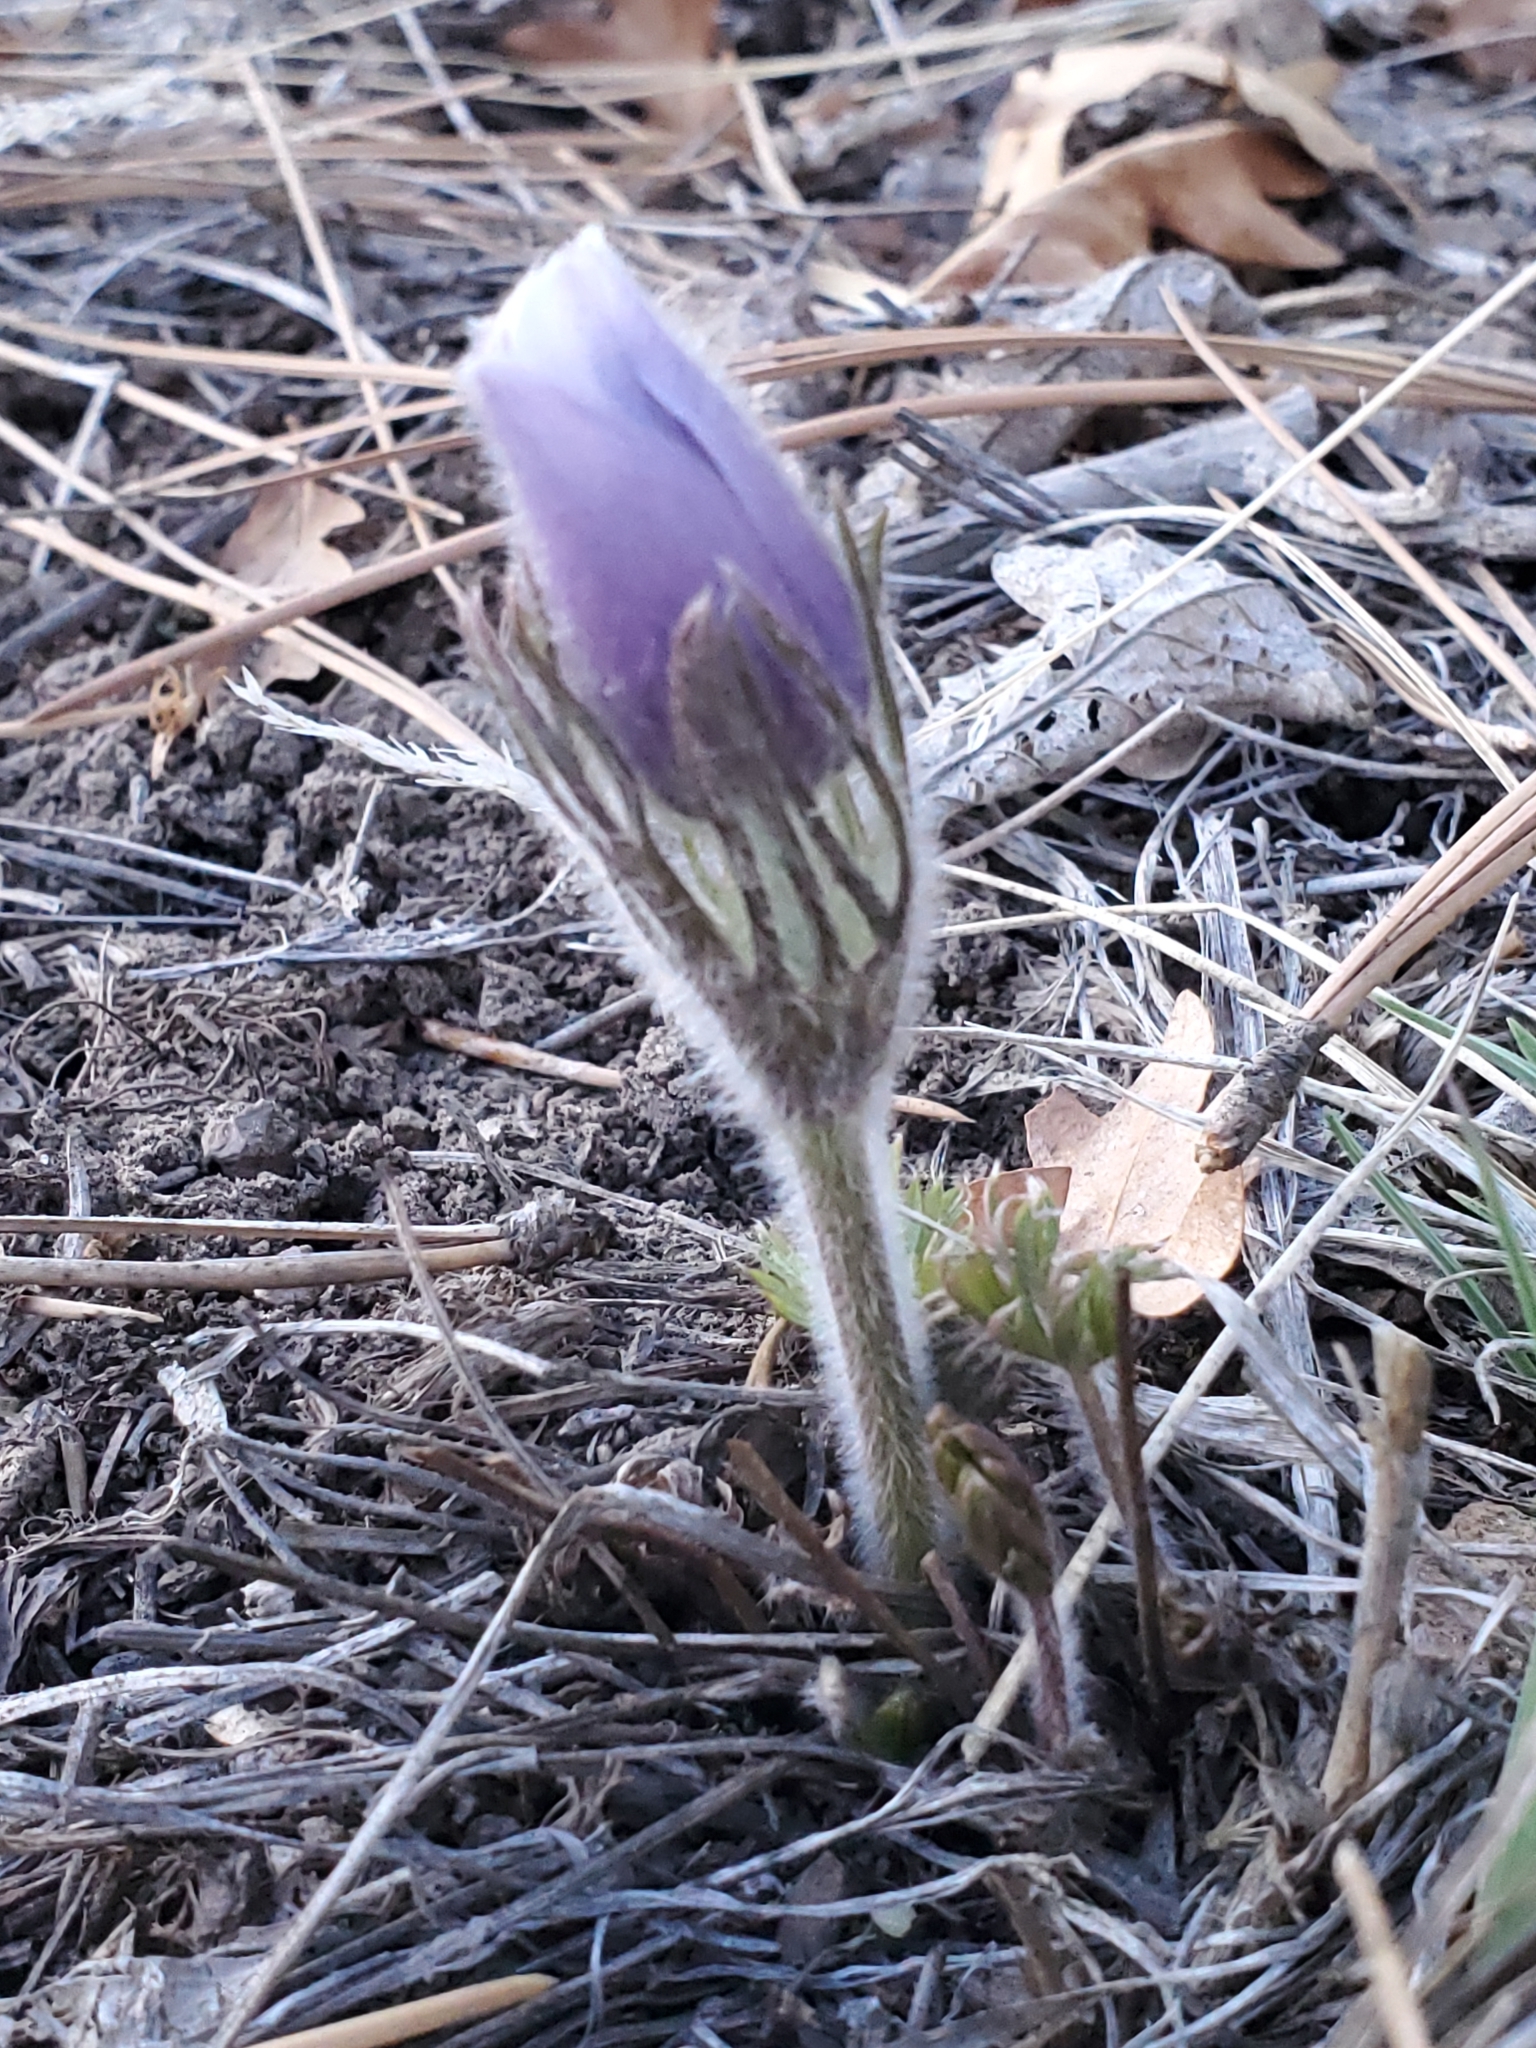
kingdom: Plantae
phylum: Tracheophyta
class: Magnoliopsida
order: Ranunculales
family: Ranunculaceae
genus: Pulsatilla
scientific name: Pulsatilla nuttalliana
